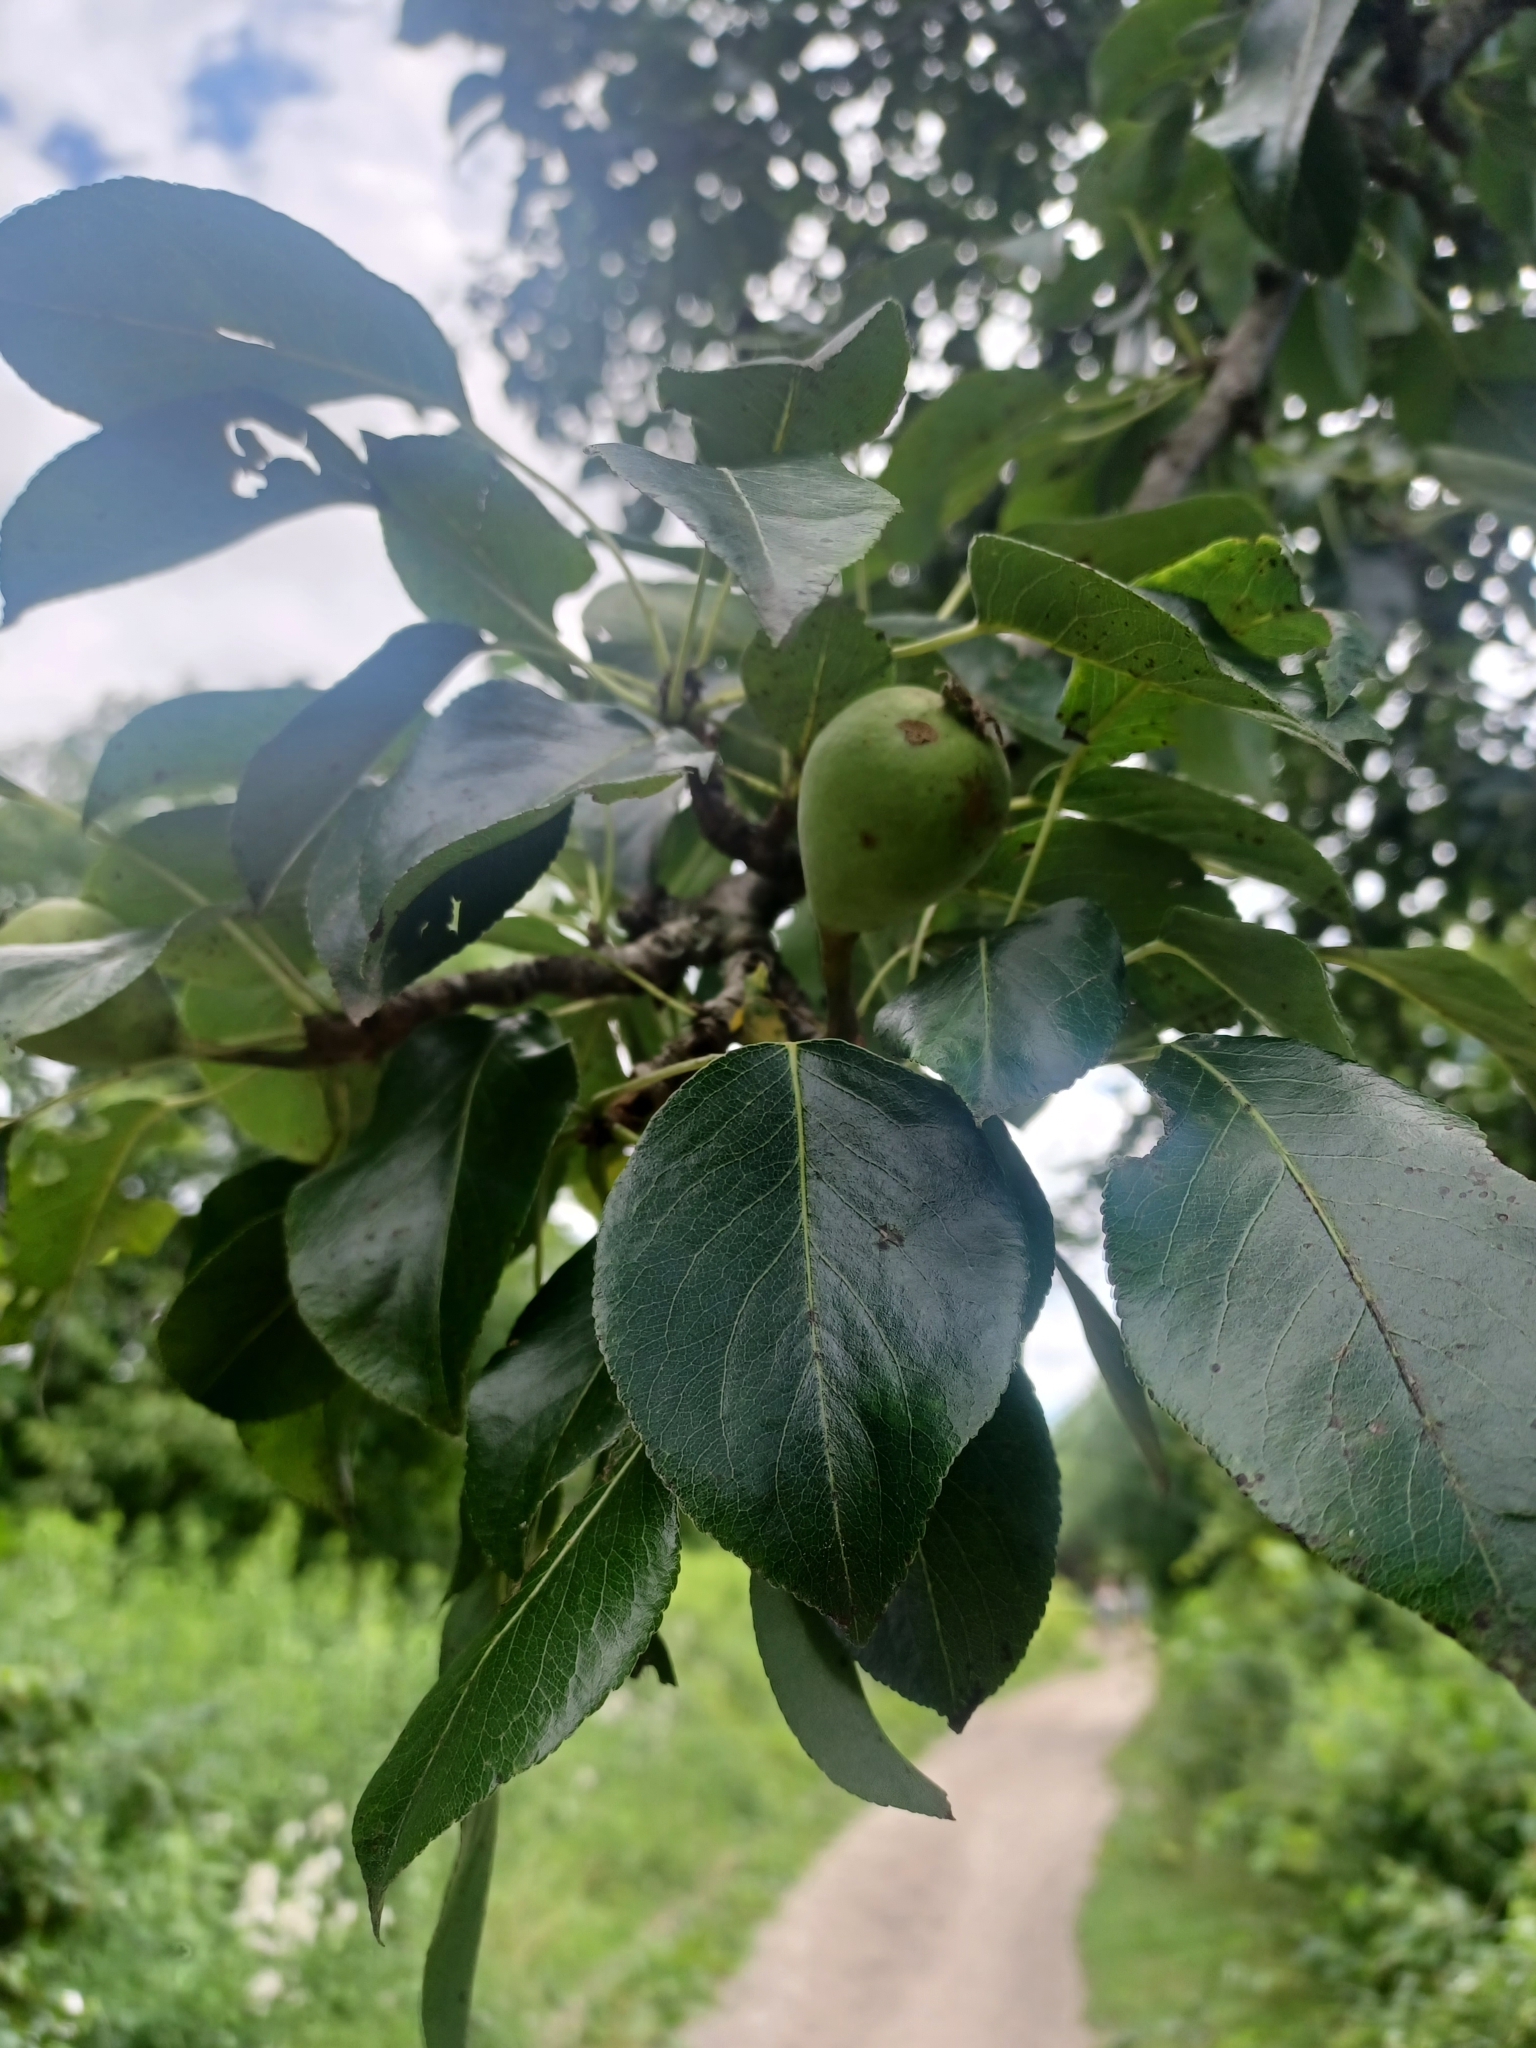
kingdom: Plantae
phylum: Tracheophyta
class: Magnoliopsida
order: Rosales
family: Rosaceae
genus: Pyrus
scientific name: Pyrus communis
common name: Pear
